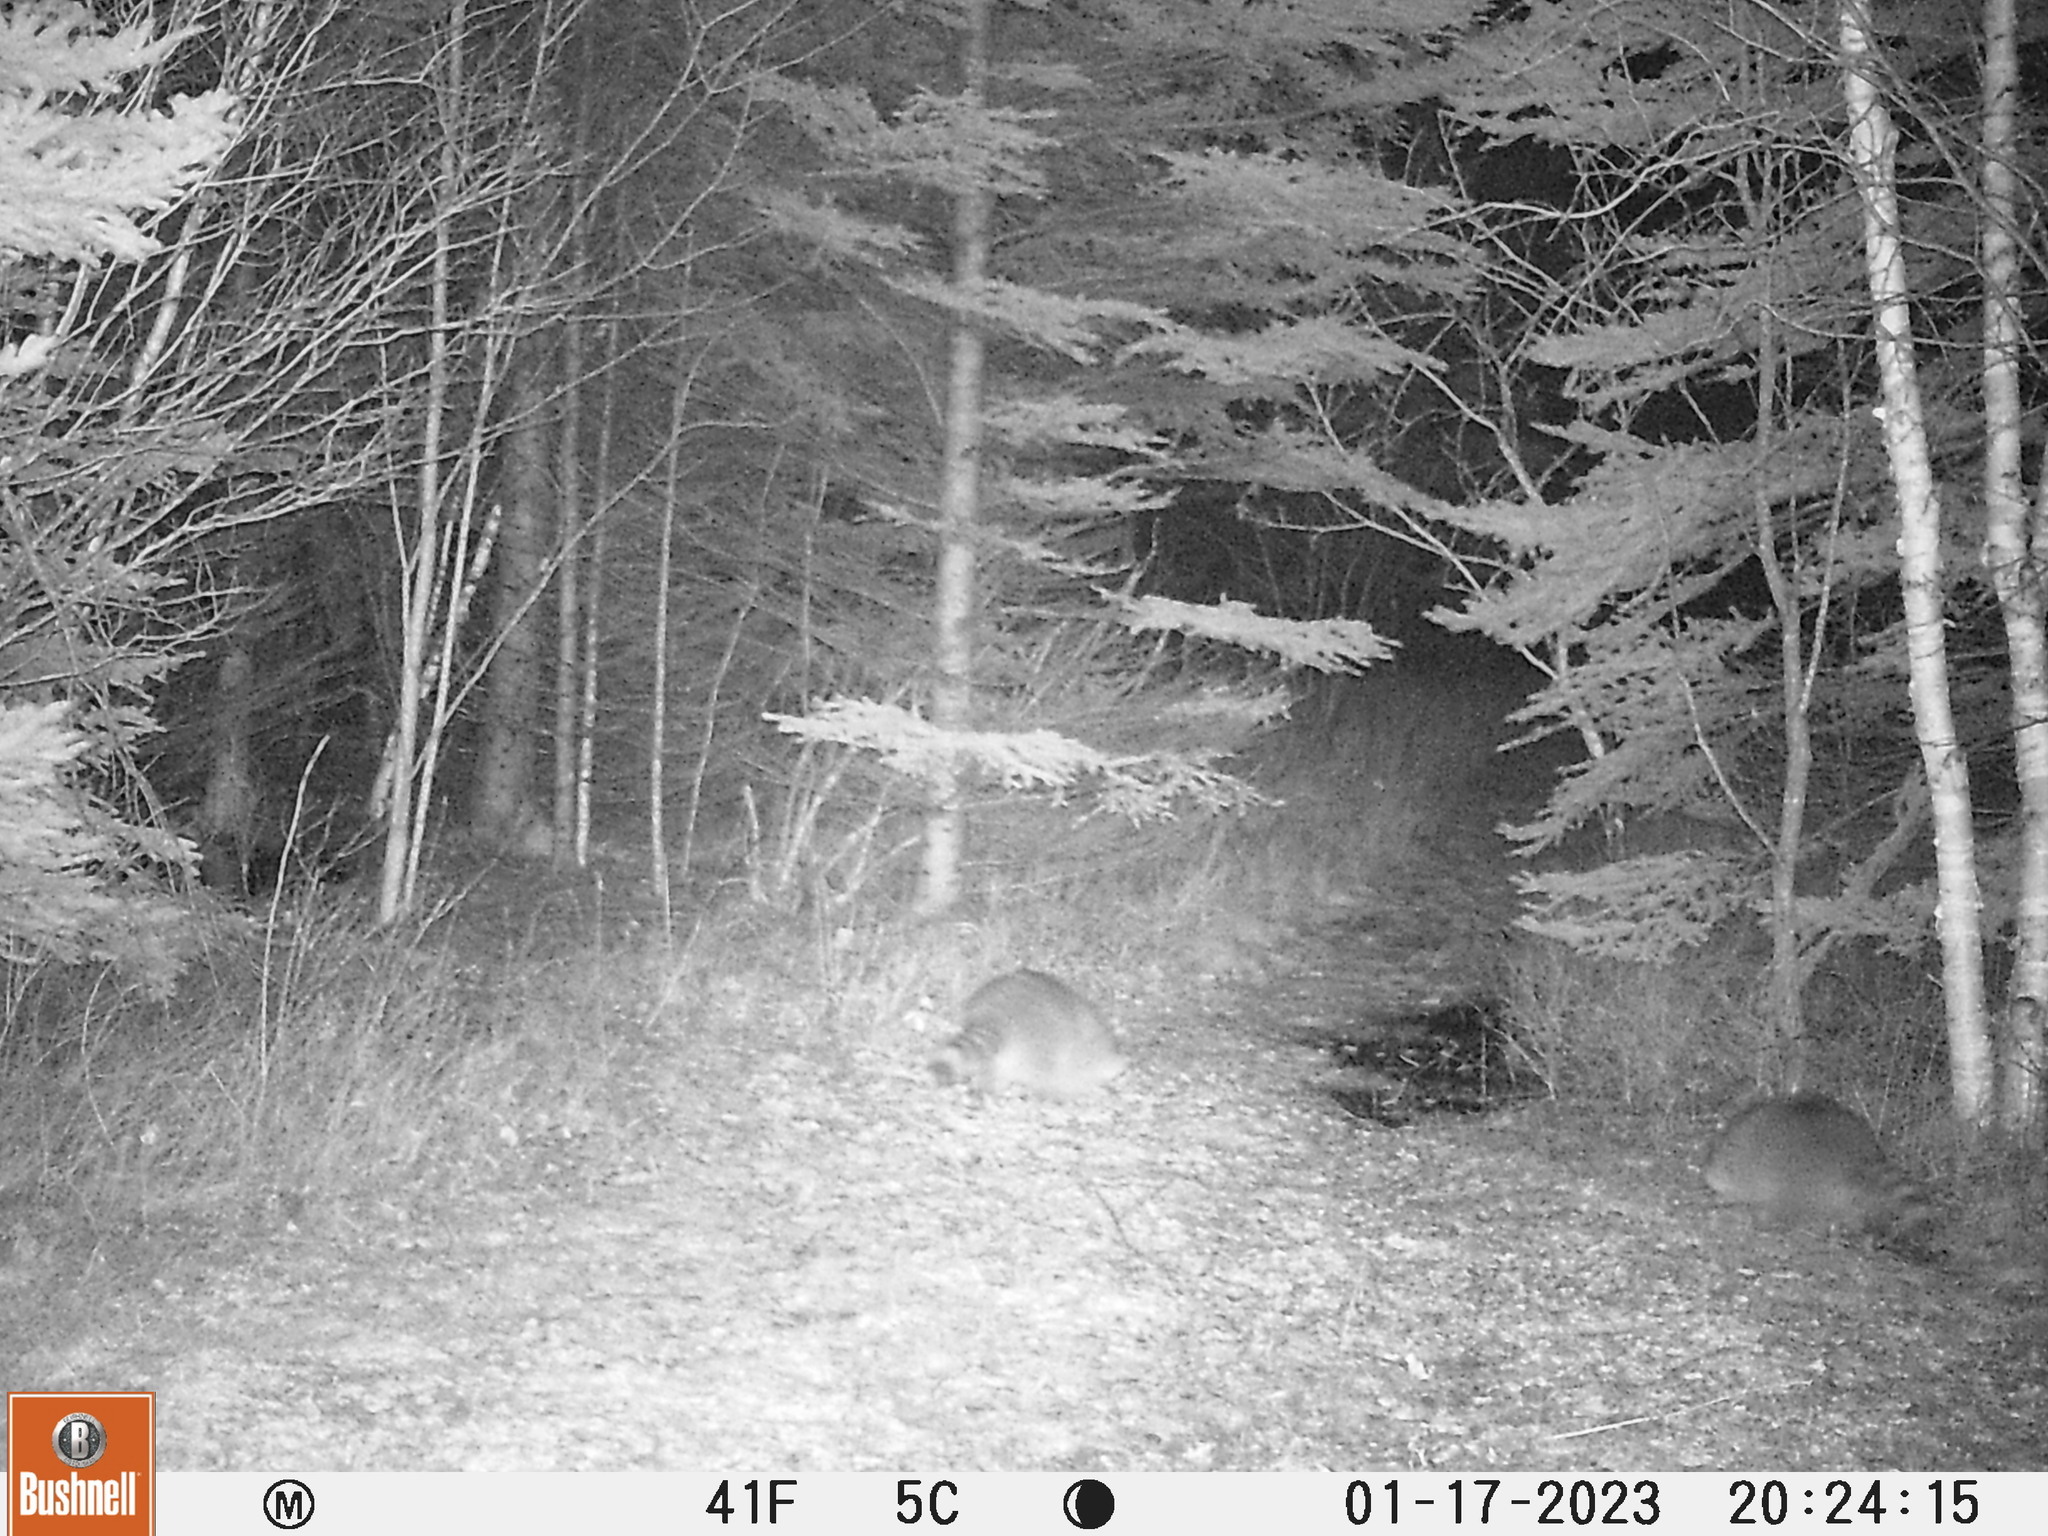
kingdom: Animalia
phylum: Chordata
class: Mammalia
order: Carnivora
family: Procyonidae
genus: Procyon
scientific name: Procyon lotor
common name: Raccoon
